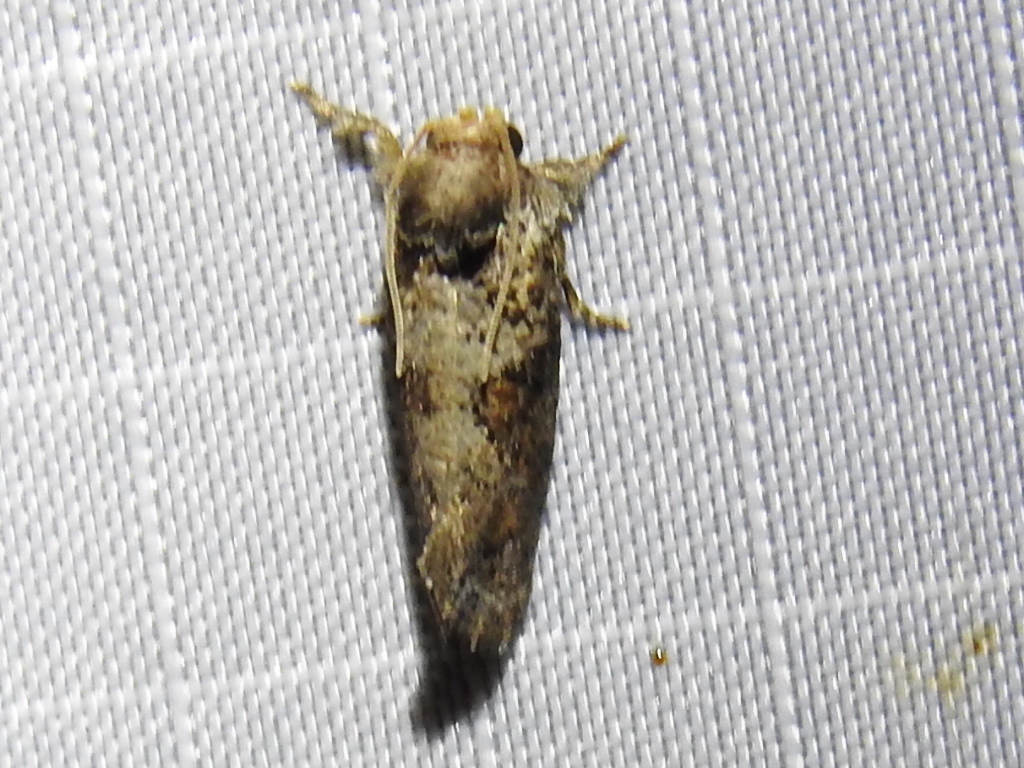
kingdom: Animalia
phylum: Arthropoda
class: Insecta
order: Lepidoptera
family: Tineidae
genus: Acrolophus
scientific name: Acrolophus piger
